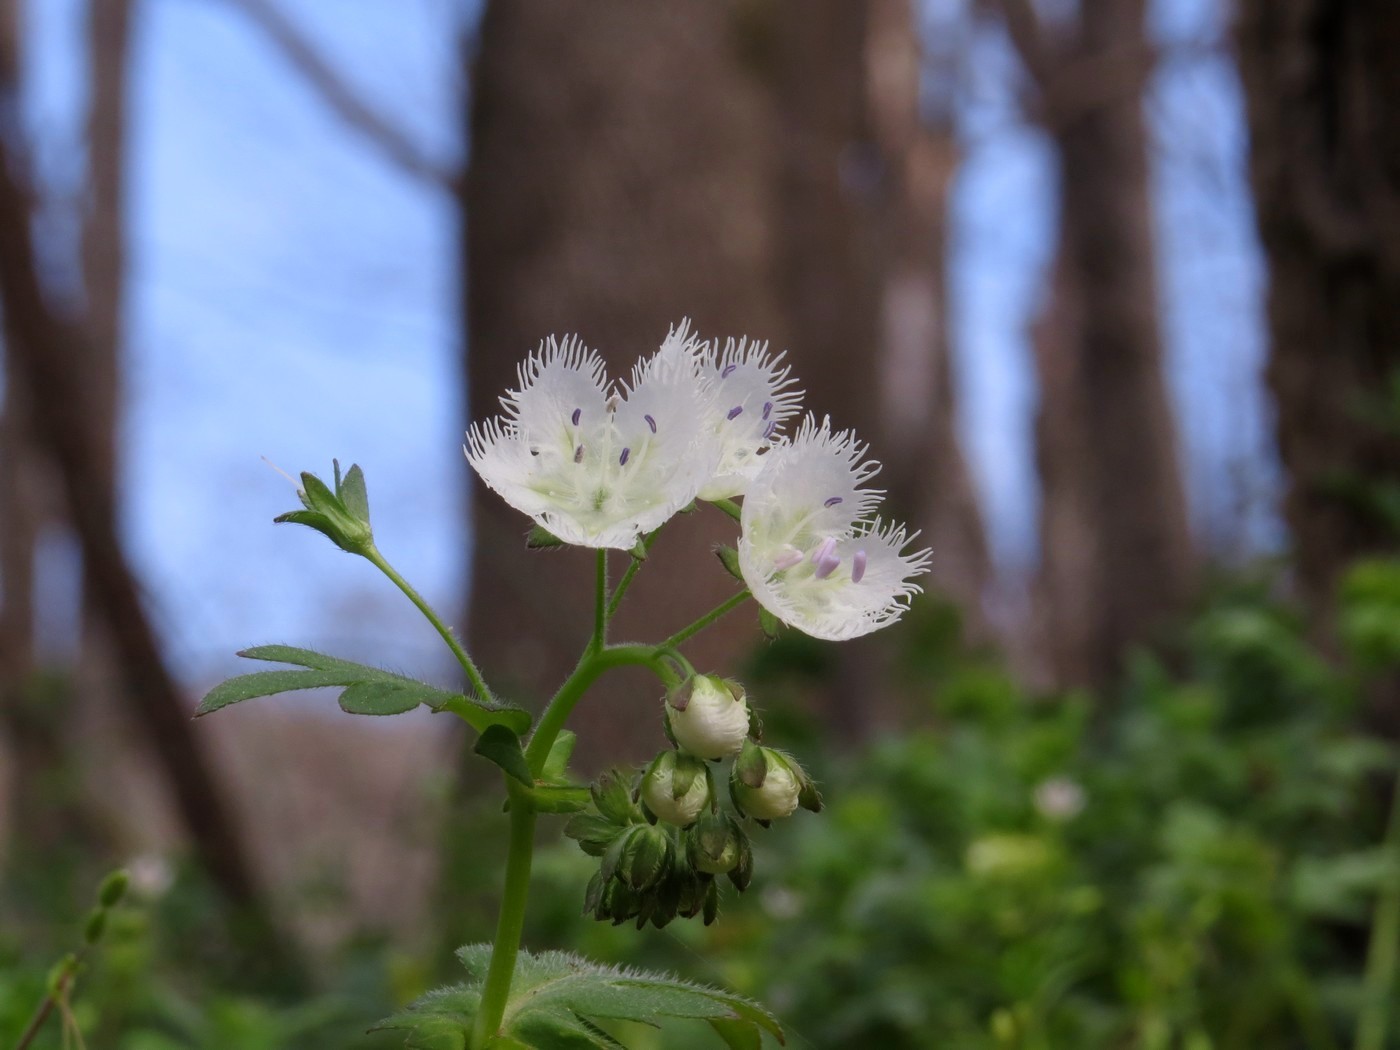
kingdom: Plantae
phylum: Tracheophyta
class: Magnoliopsida
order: Boraginales
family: Hydrophyllaceae
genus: Phacelia
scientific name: Phacelia fimbriata
